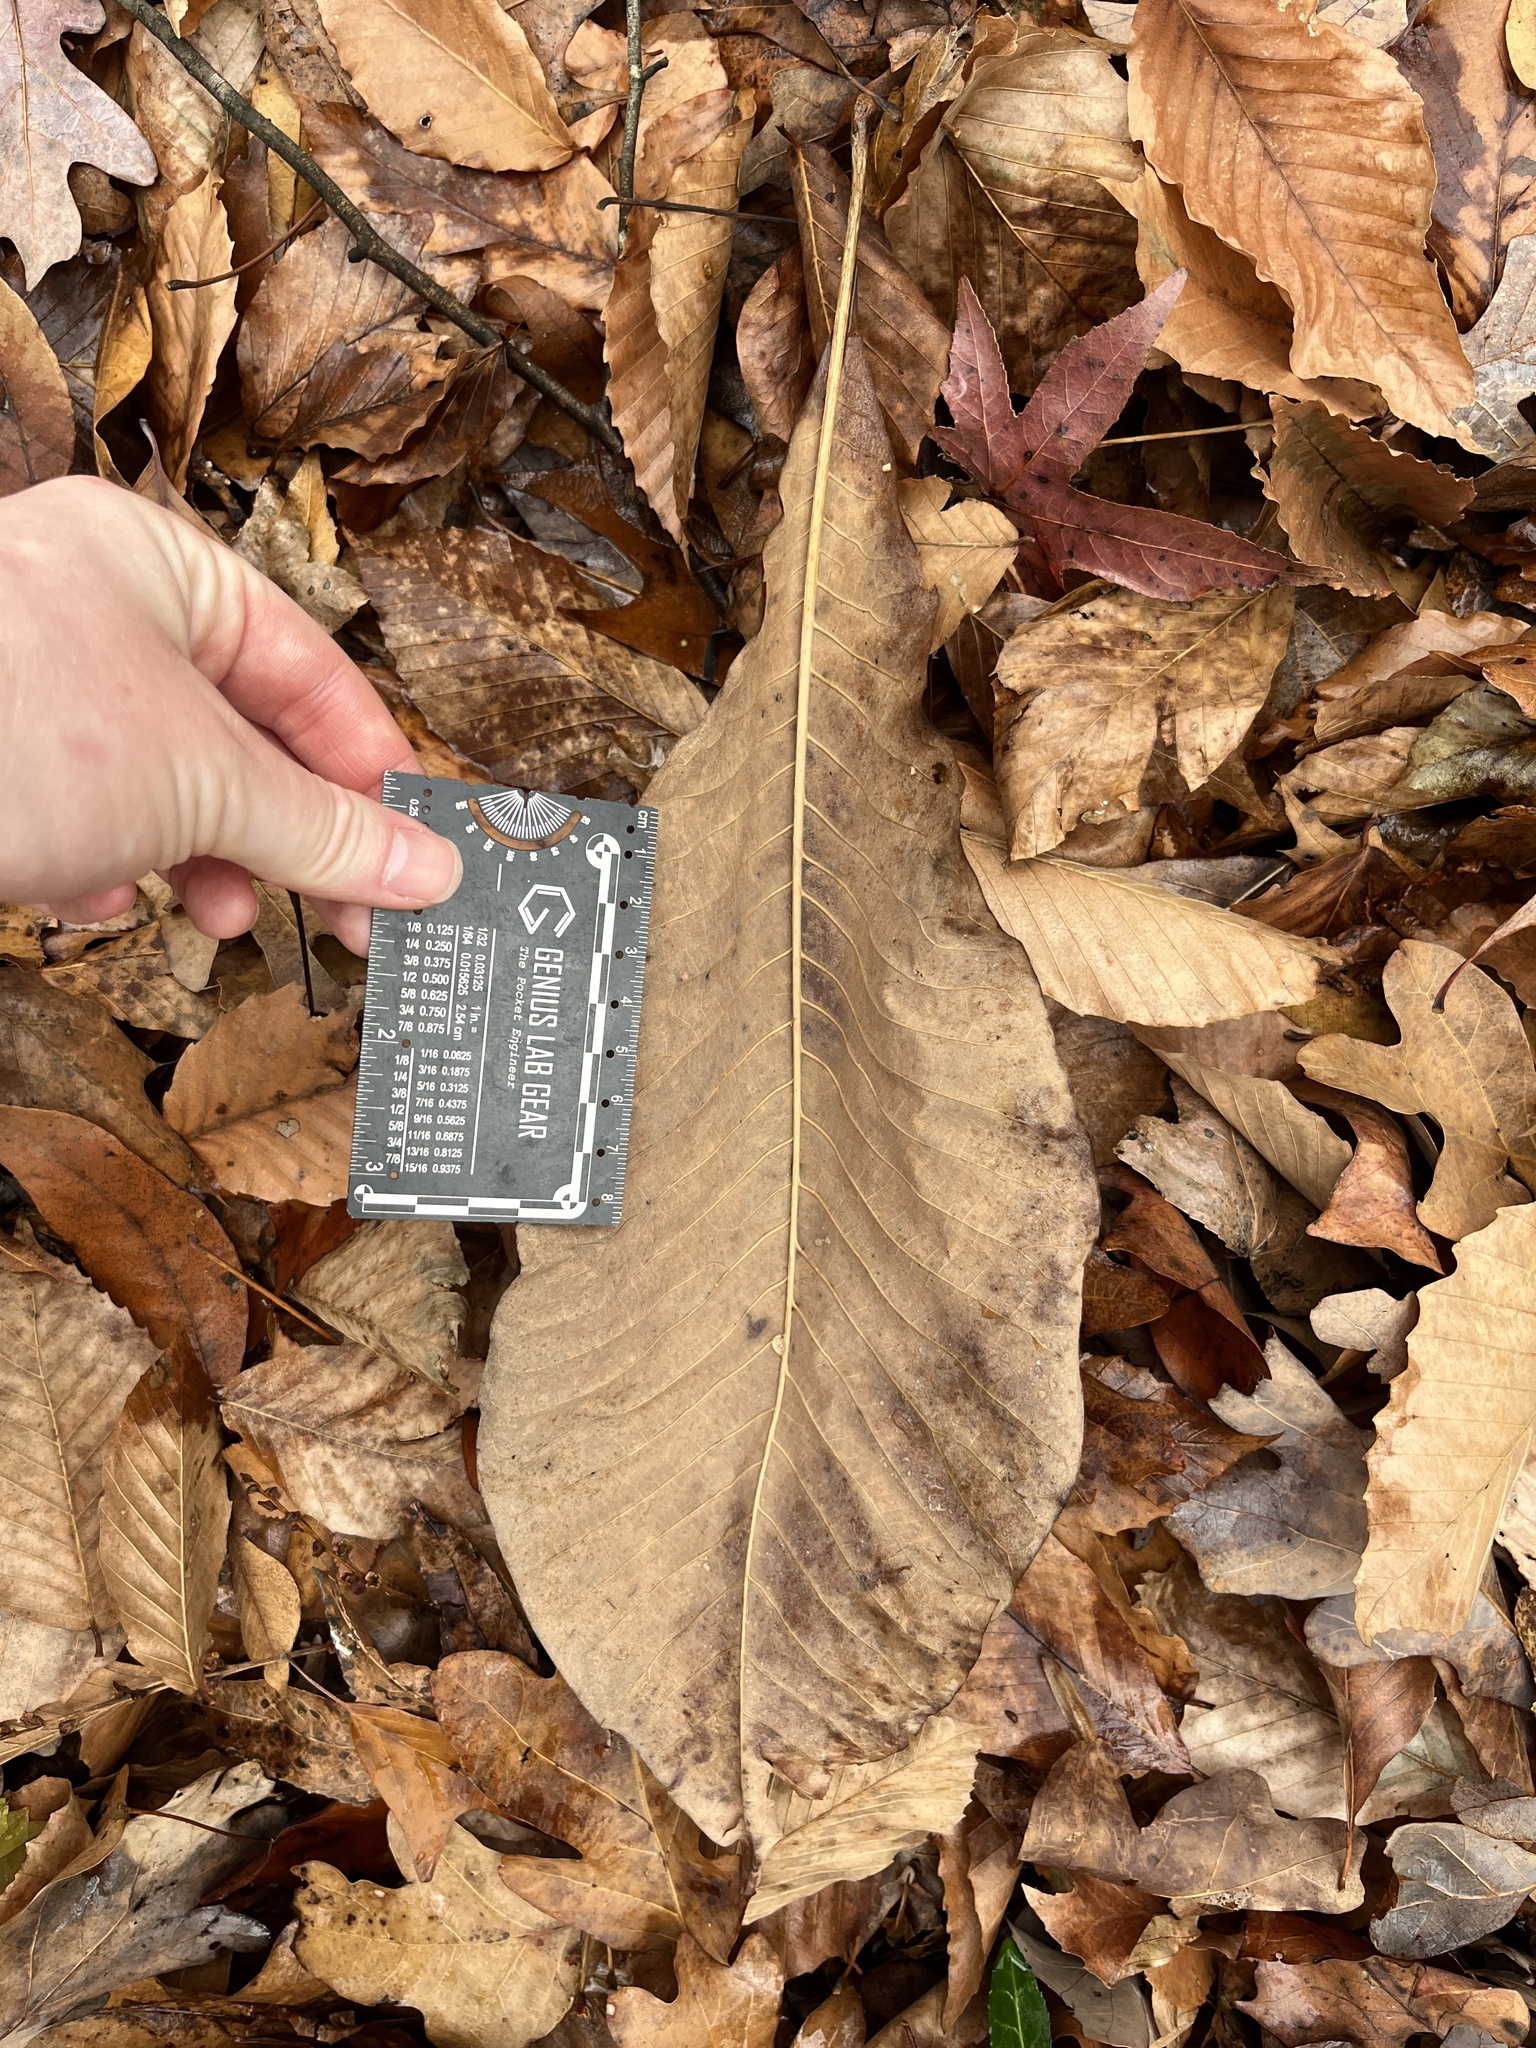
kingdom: Plantae
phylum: Tracheophyta
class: Magnoliopsida
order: Magnoliales
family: Magnoliaceae
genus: Magnolia
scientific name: Magnolia tripetala
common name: Umbrella magnolia
